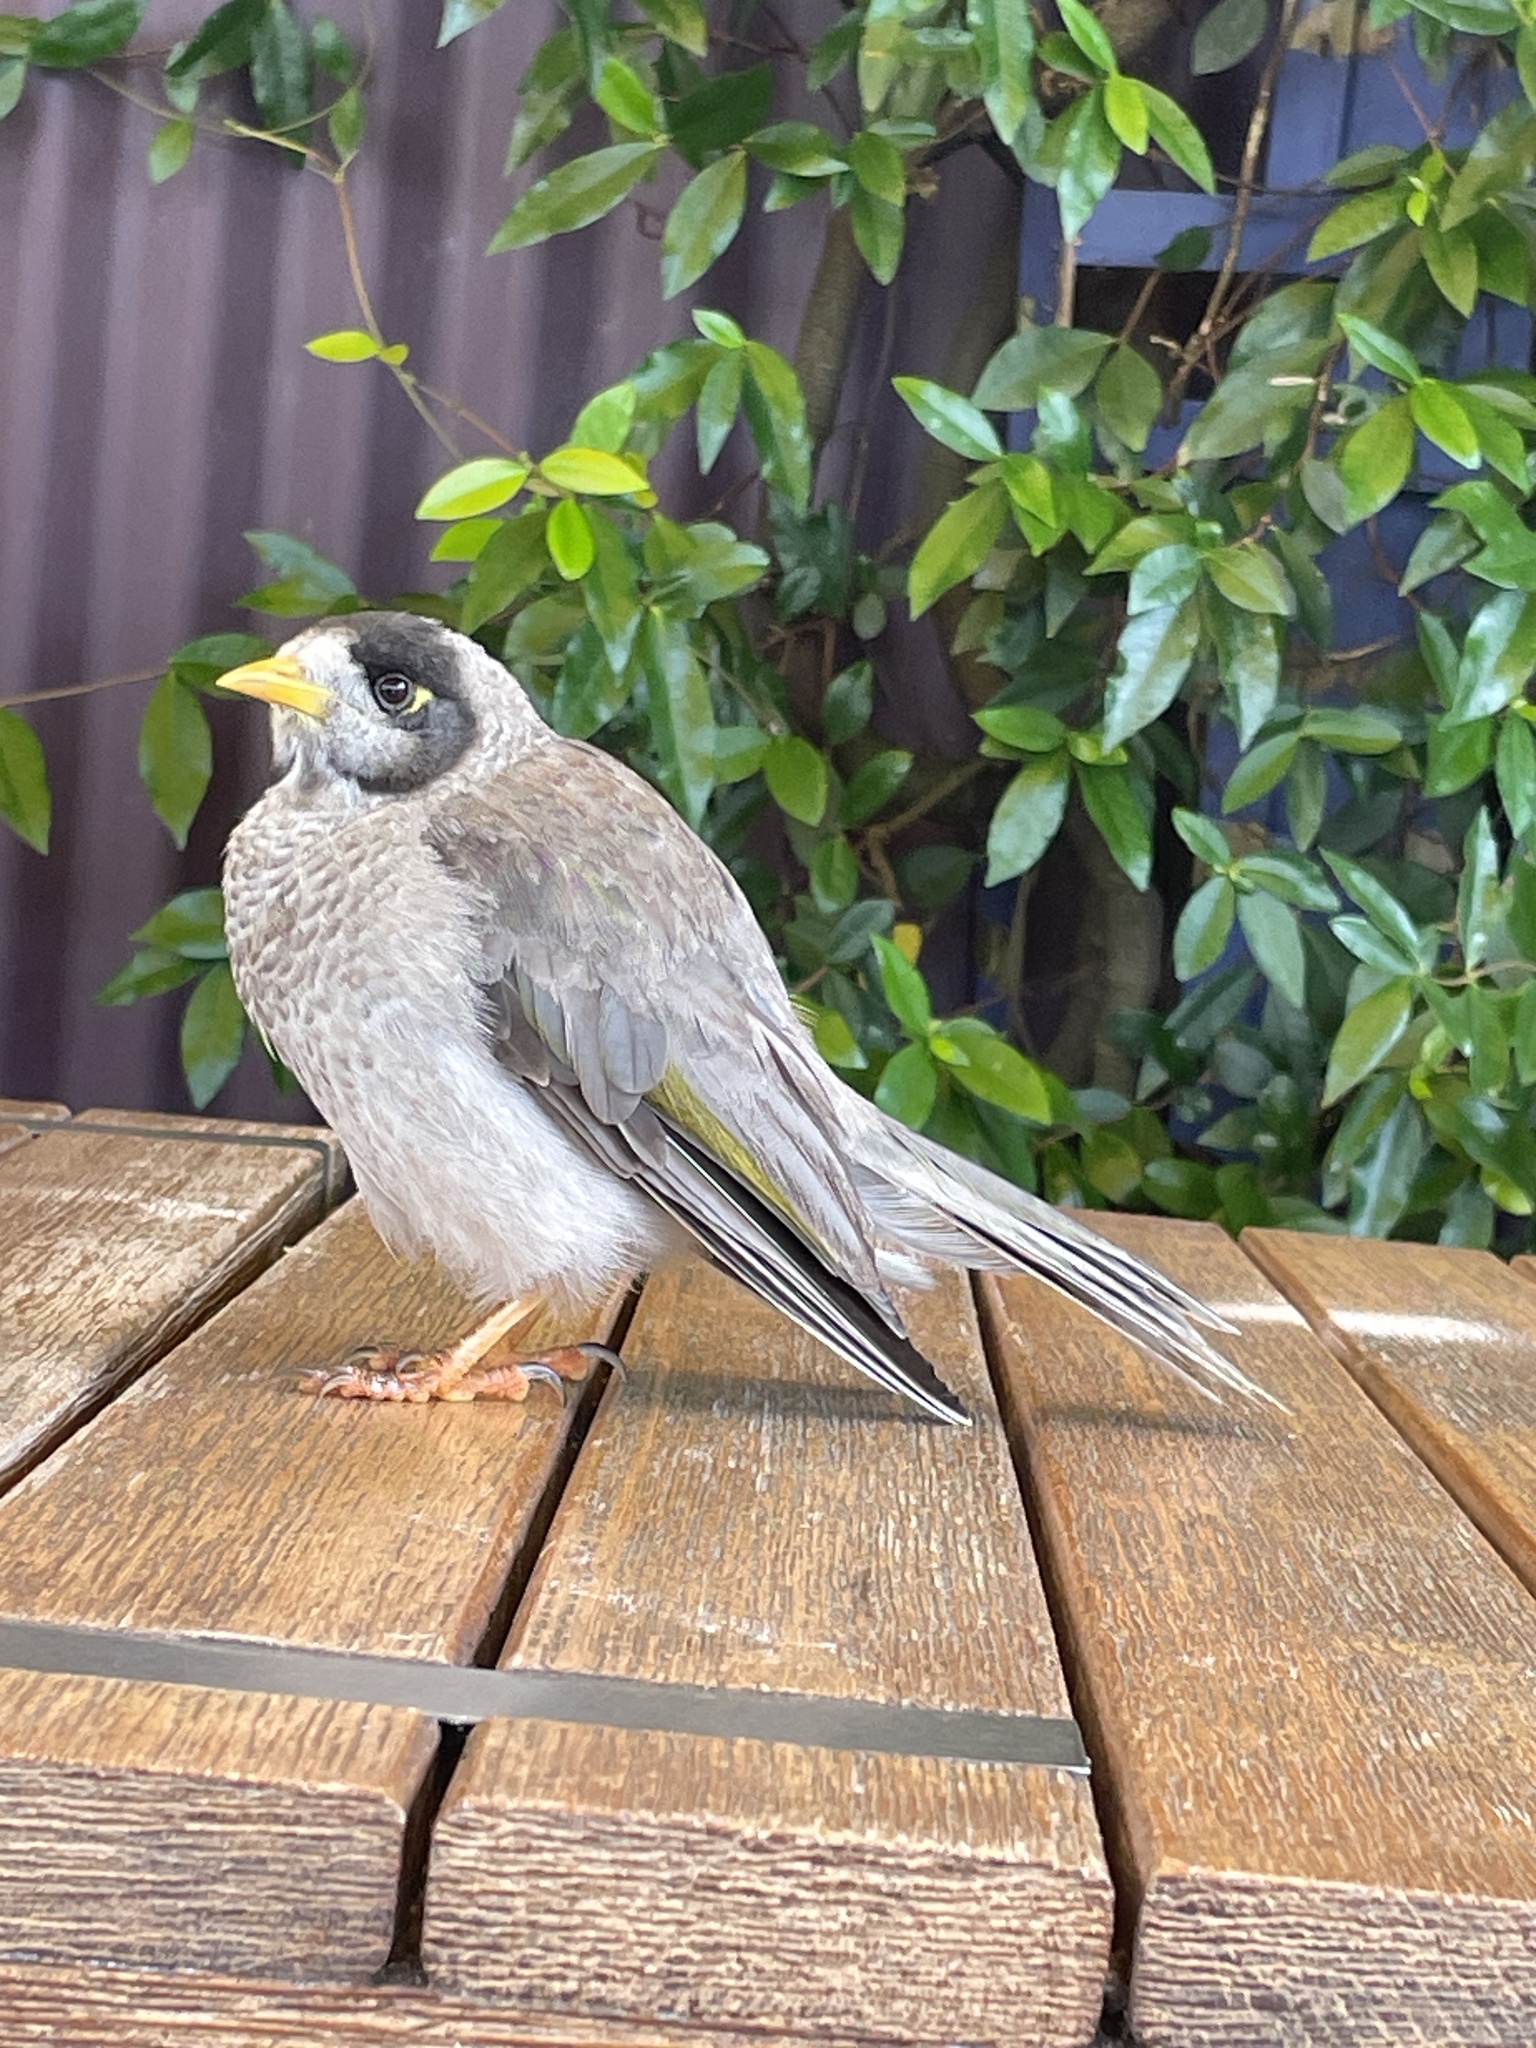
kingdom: Animalia
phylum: Chordata
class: Aves
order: Passeriformes
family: Meliphagidae
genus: Manorina
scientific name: Manorina melanocephala
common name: Noisy miner
